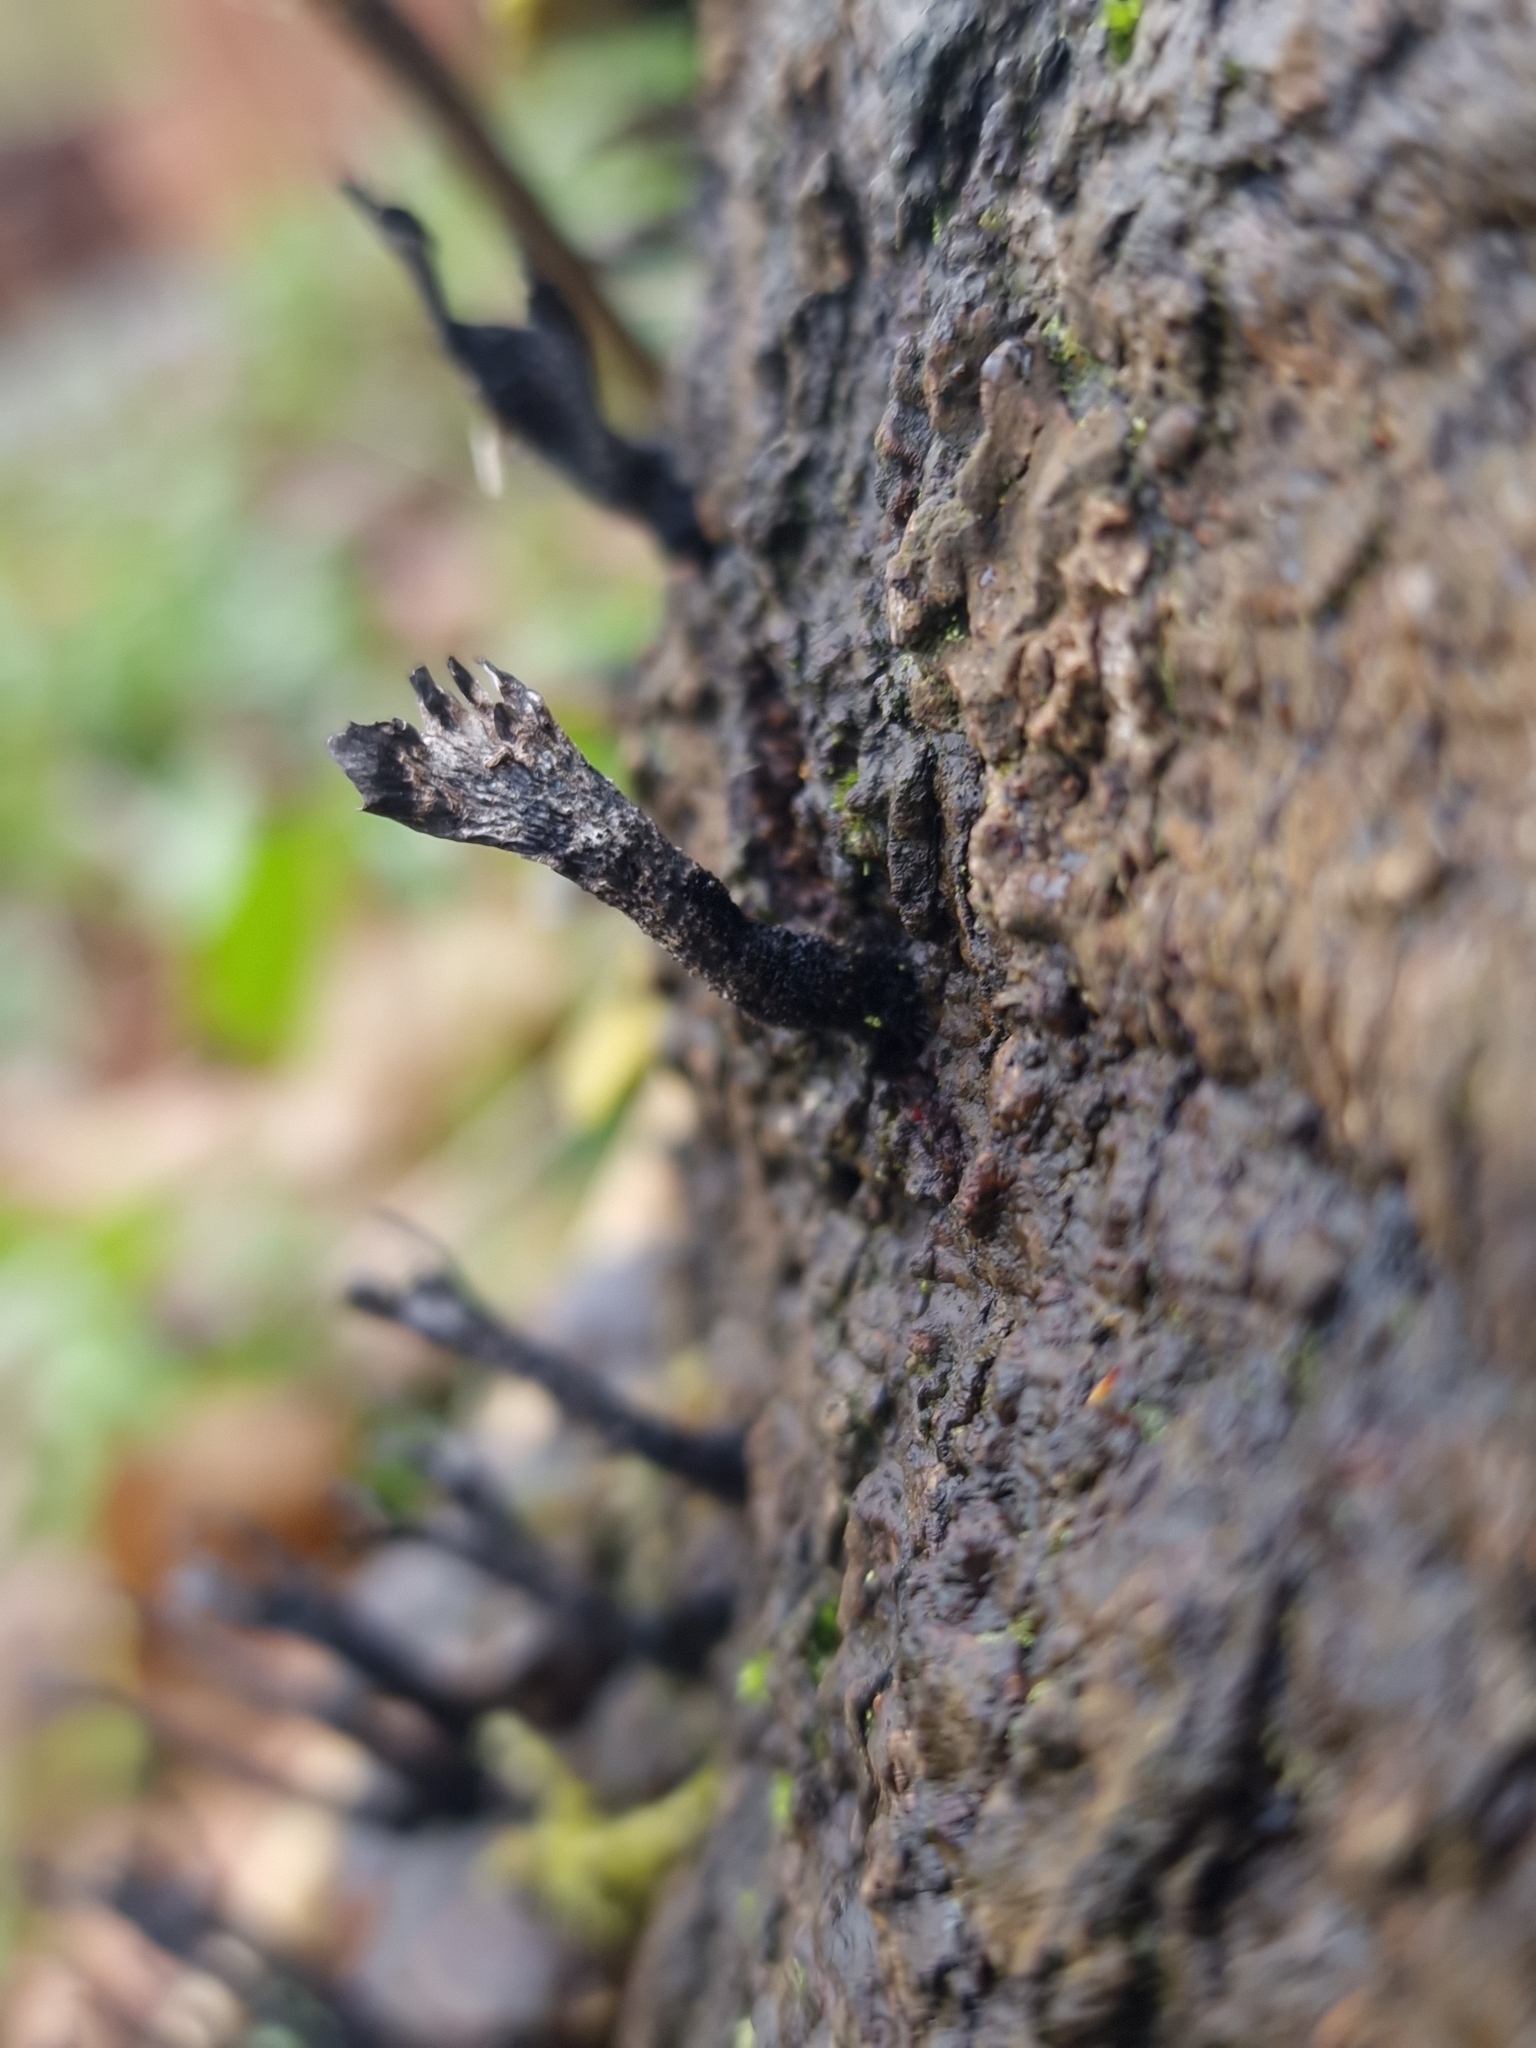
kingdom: Fungi
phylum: Ascomycota
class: Sordariomycetes
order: Xylariales
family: Xylariaceae
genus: Xylaria
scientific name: Xylaria hypoxylon
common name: Candle-snuff fungus
